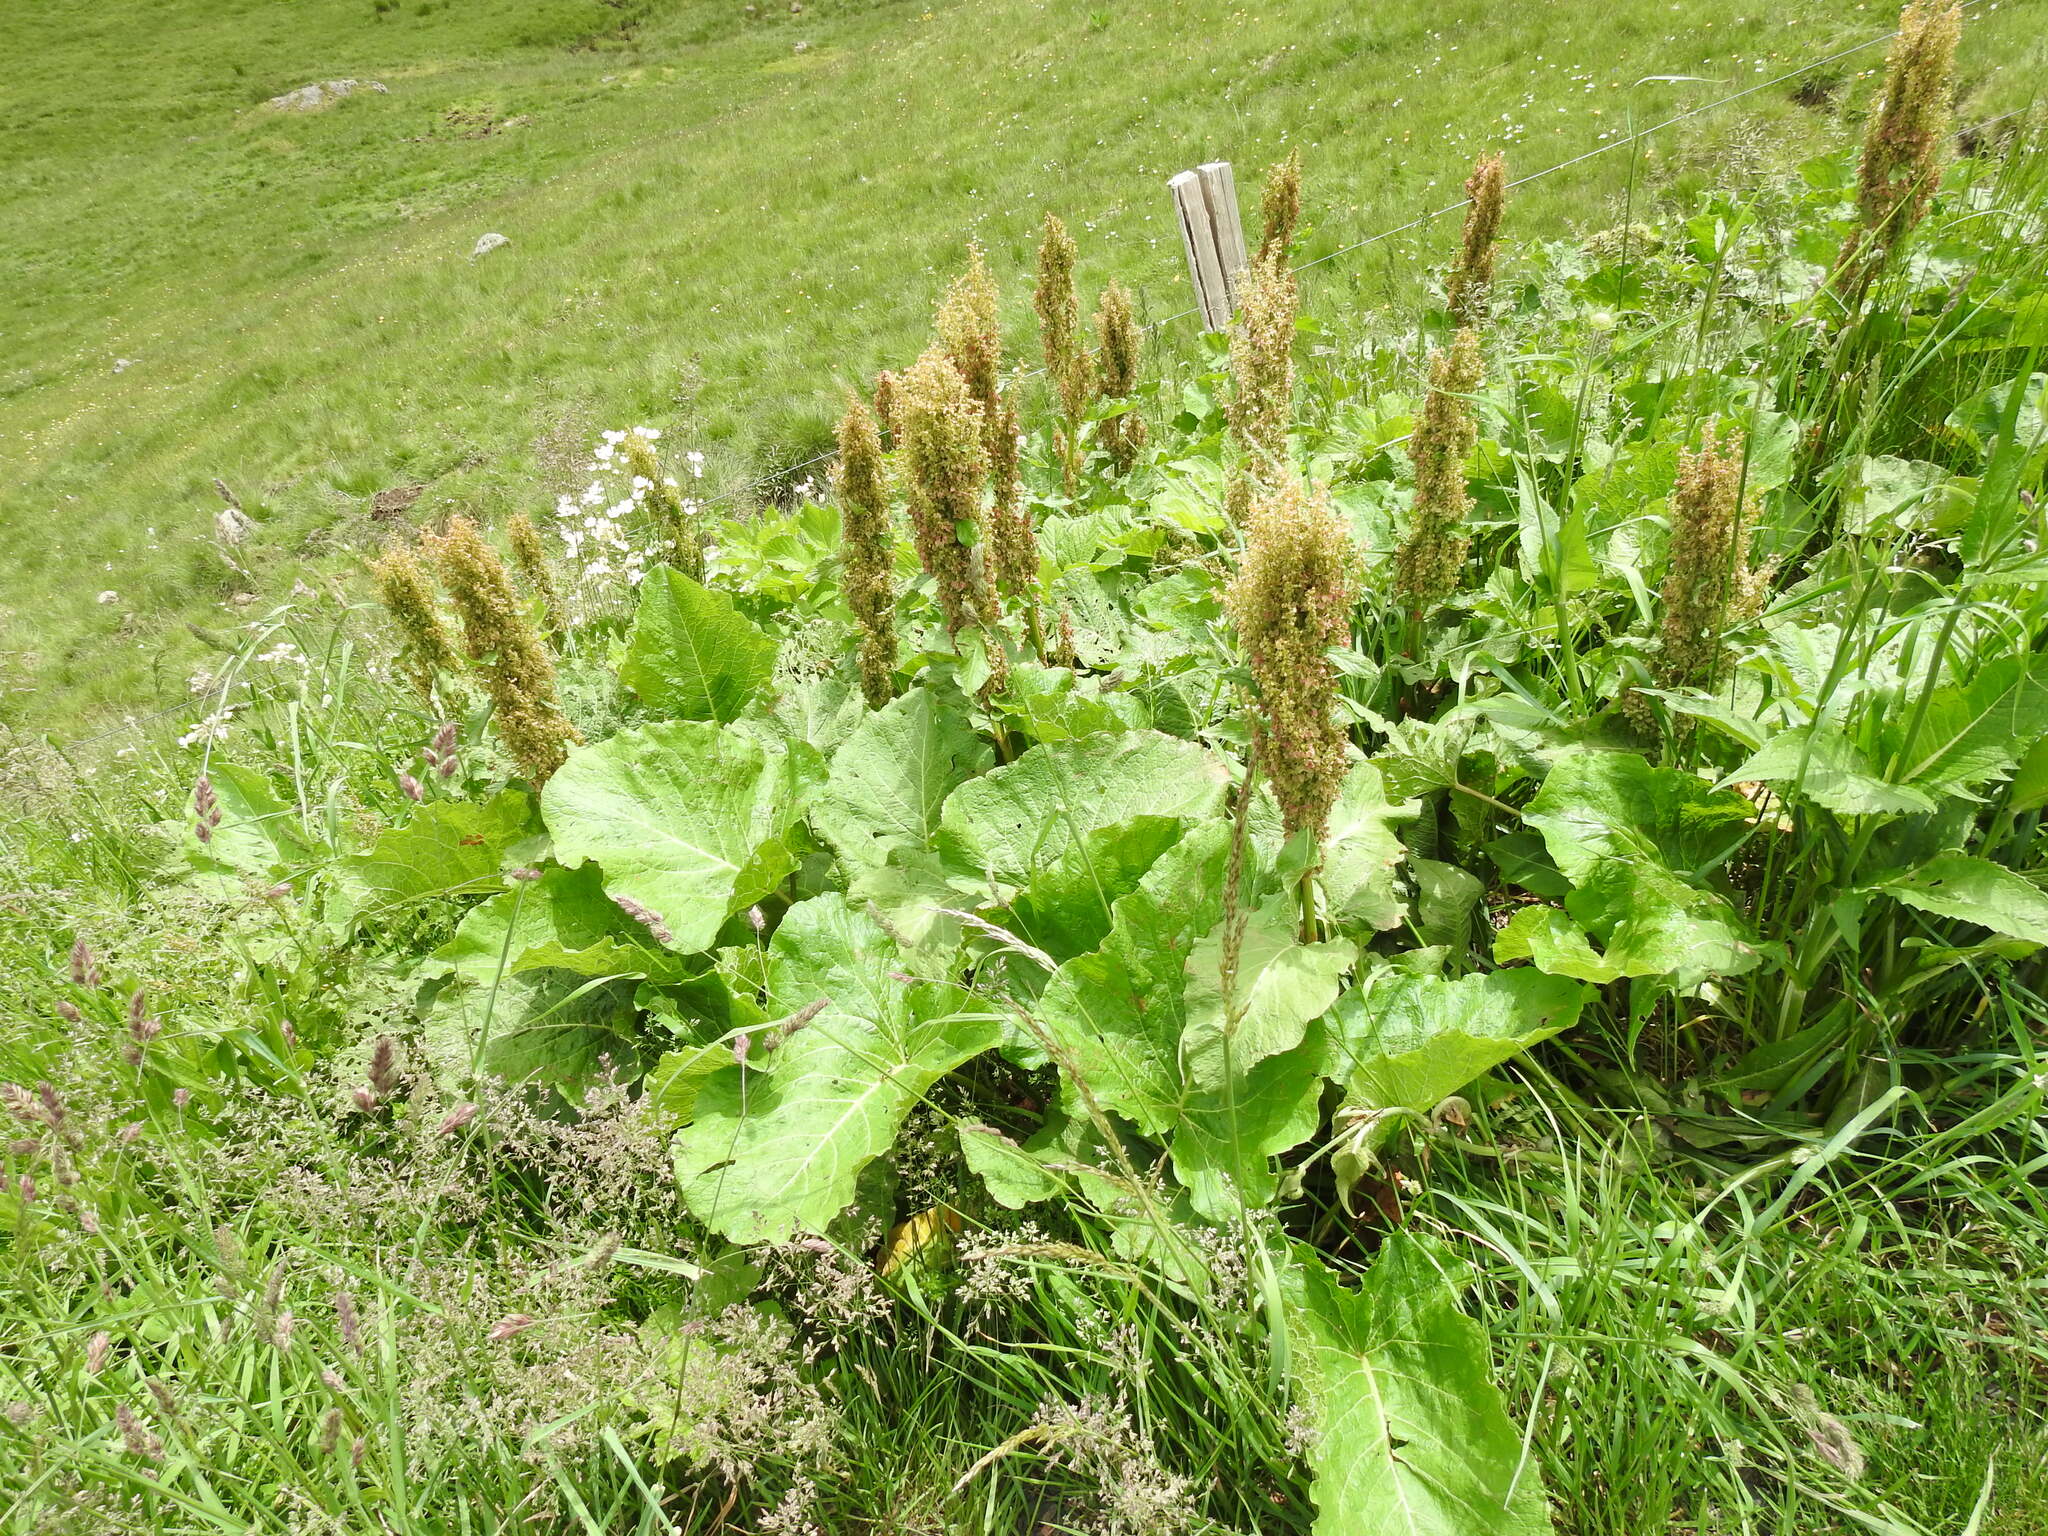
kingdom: Plantae
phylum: Tracheophyta
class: Magnoliopsida
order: Caryophyllales
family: Polygonaceae
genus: Rumex
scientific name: Rumex alpinus
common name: Alpine dock
